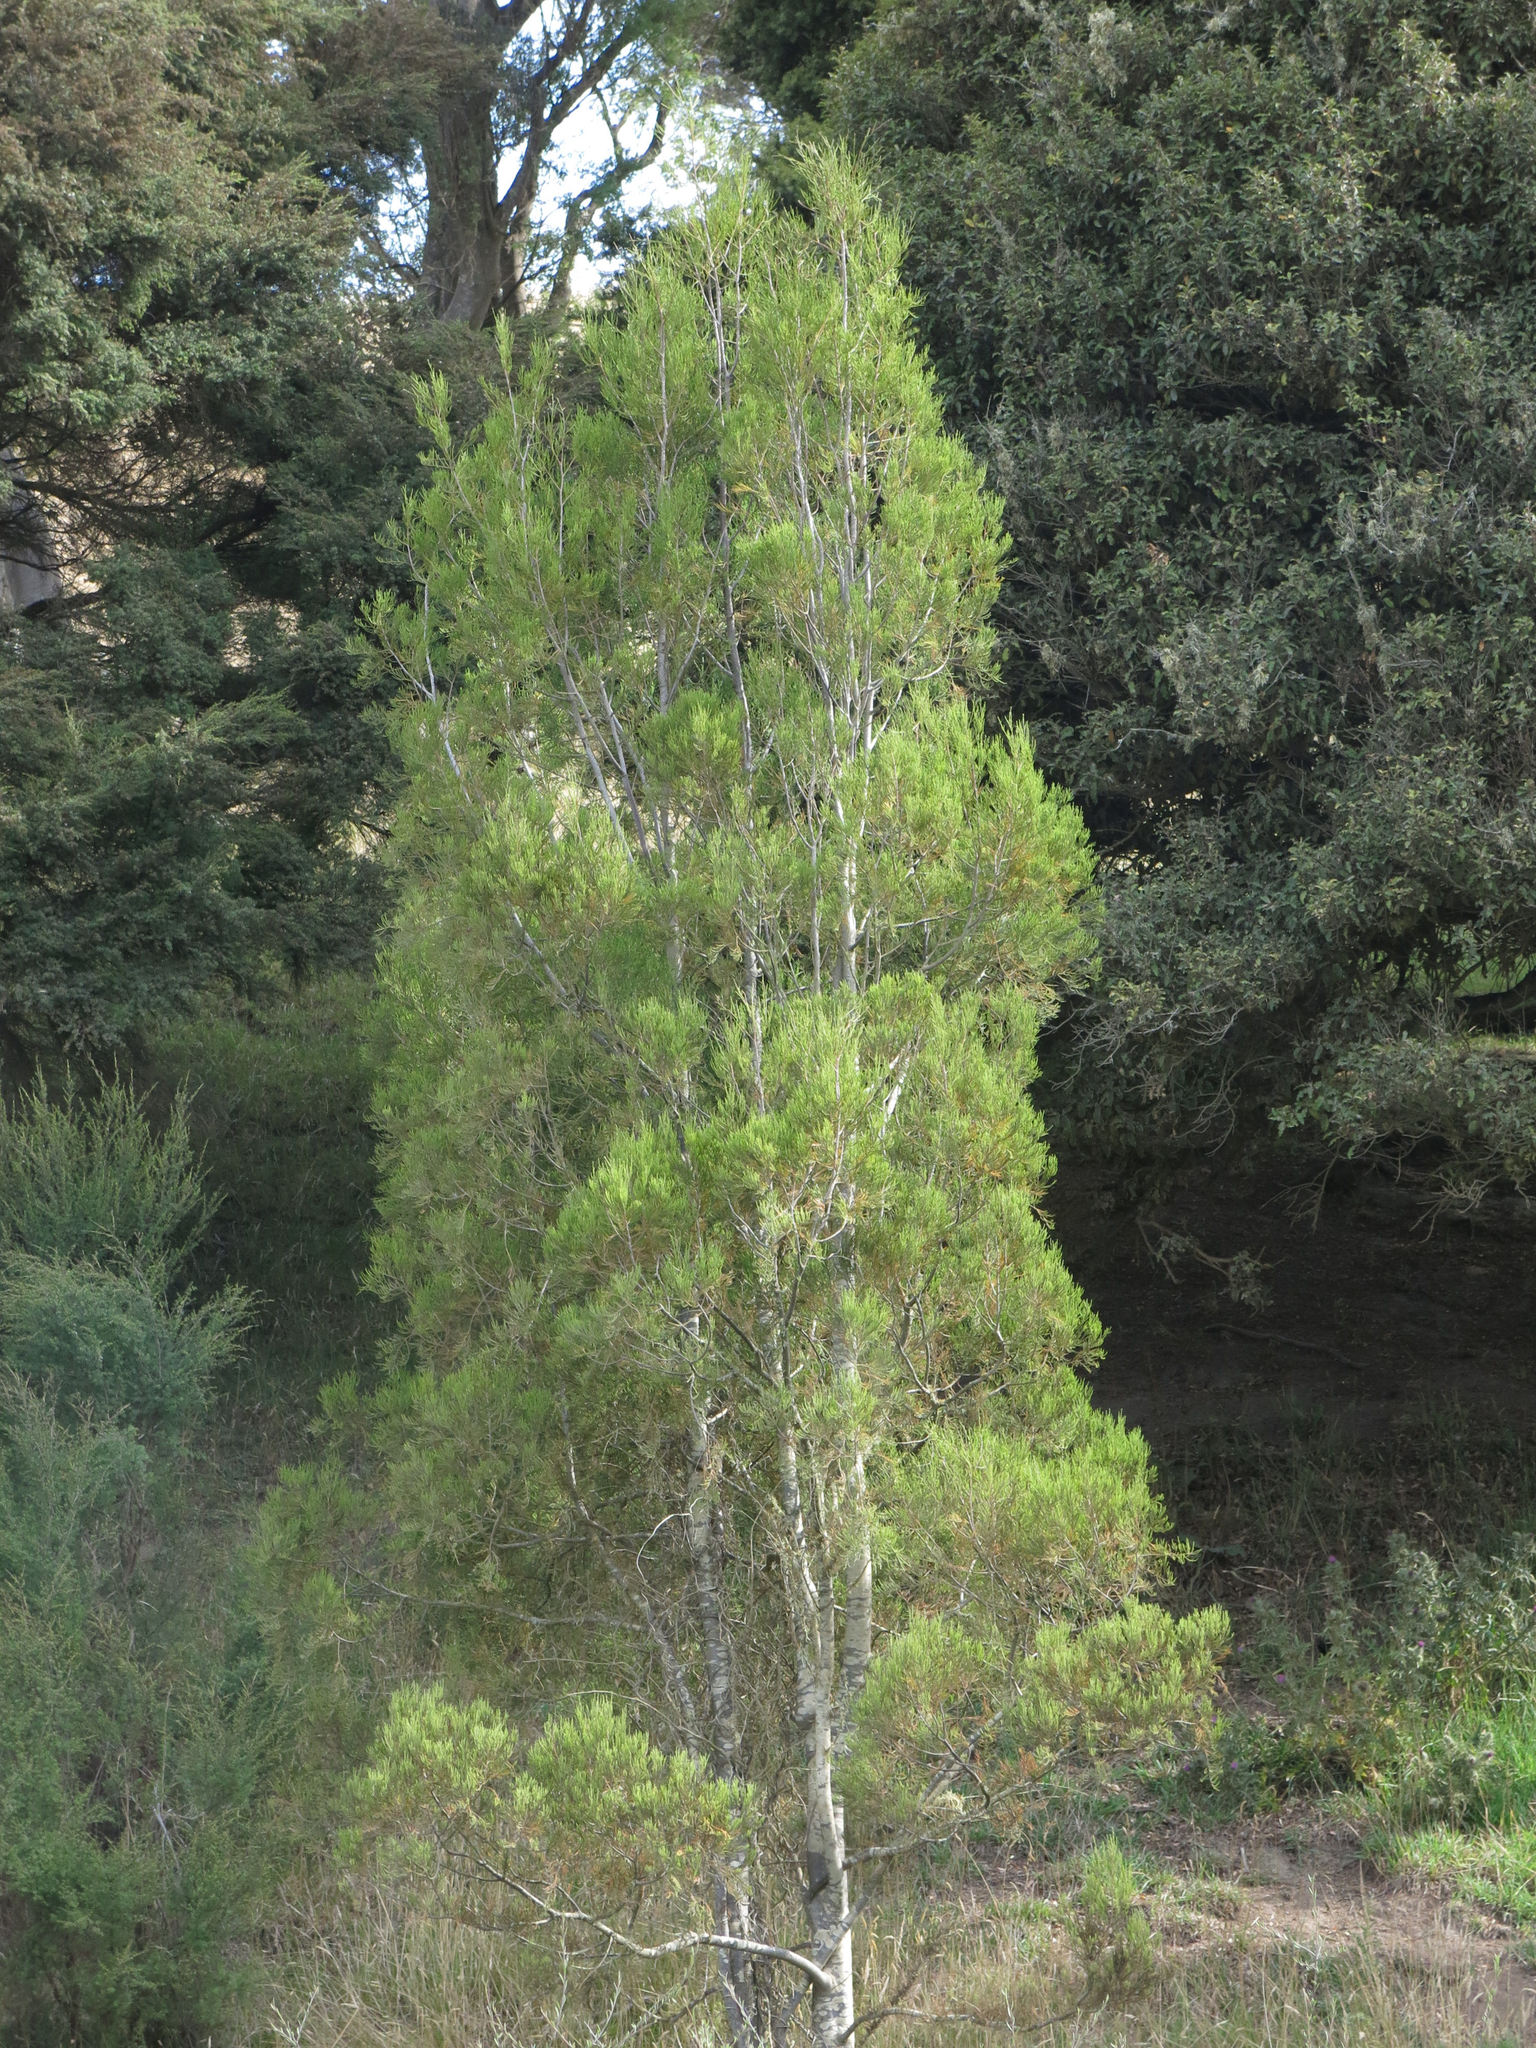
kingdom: Plantae
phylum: Tracheophyta
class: Pinopsida
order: Pinales
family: Podocarpaceae
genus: Dacrycarpus
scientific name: Dacrycarpus dacrydioides
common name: White pine
